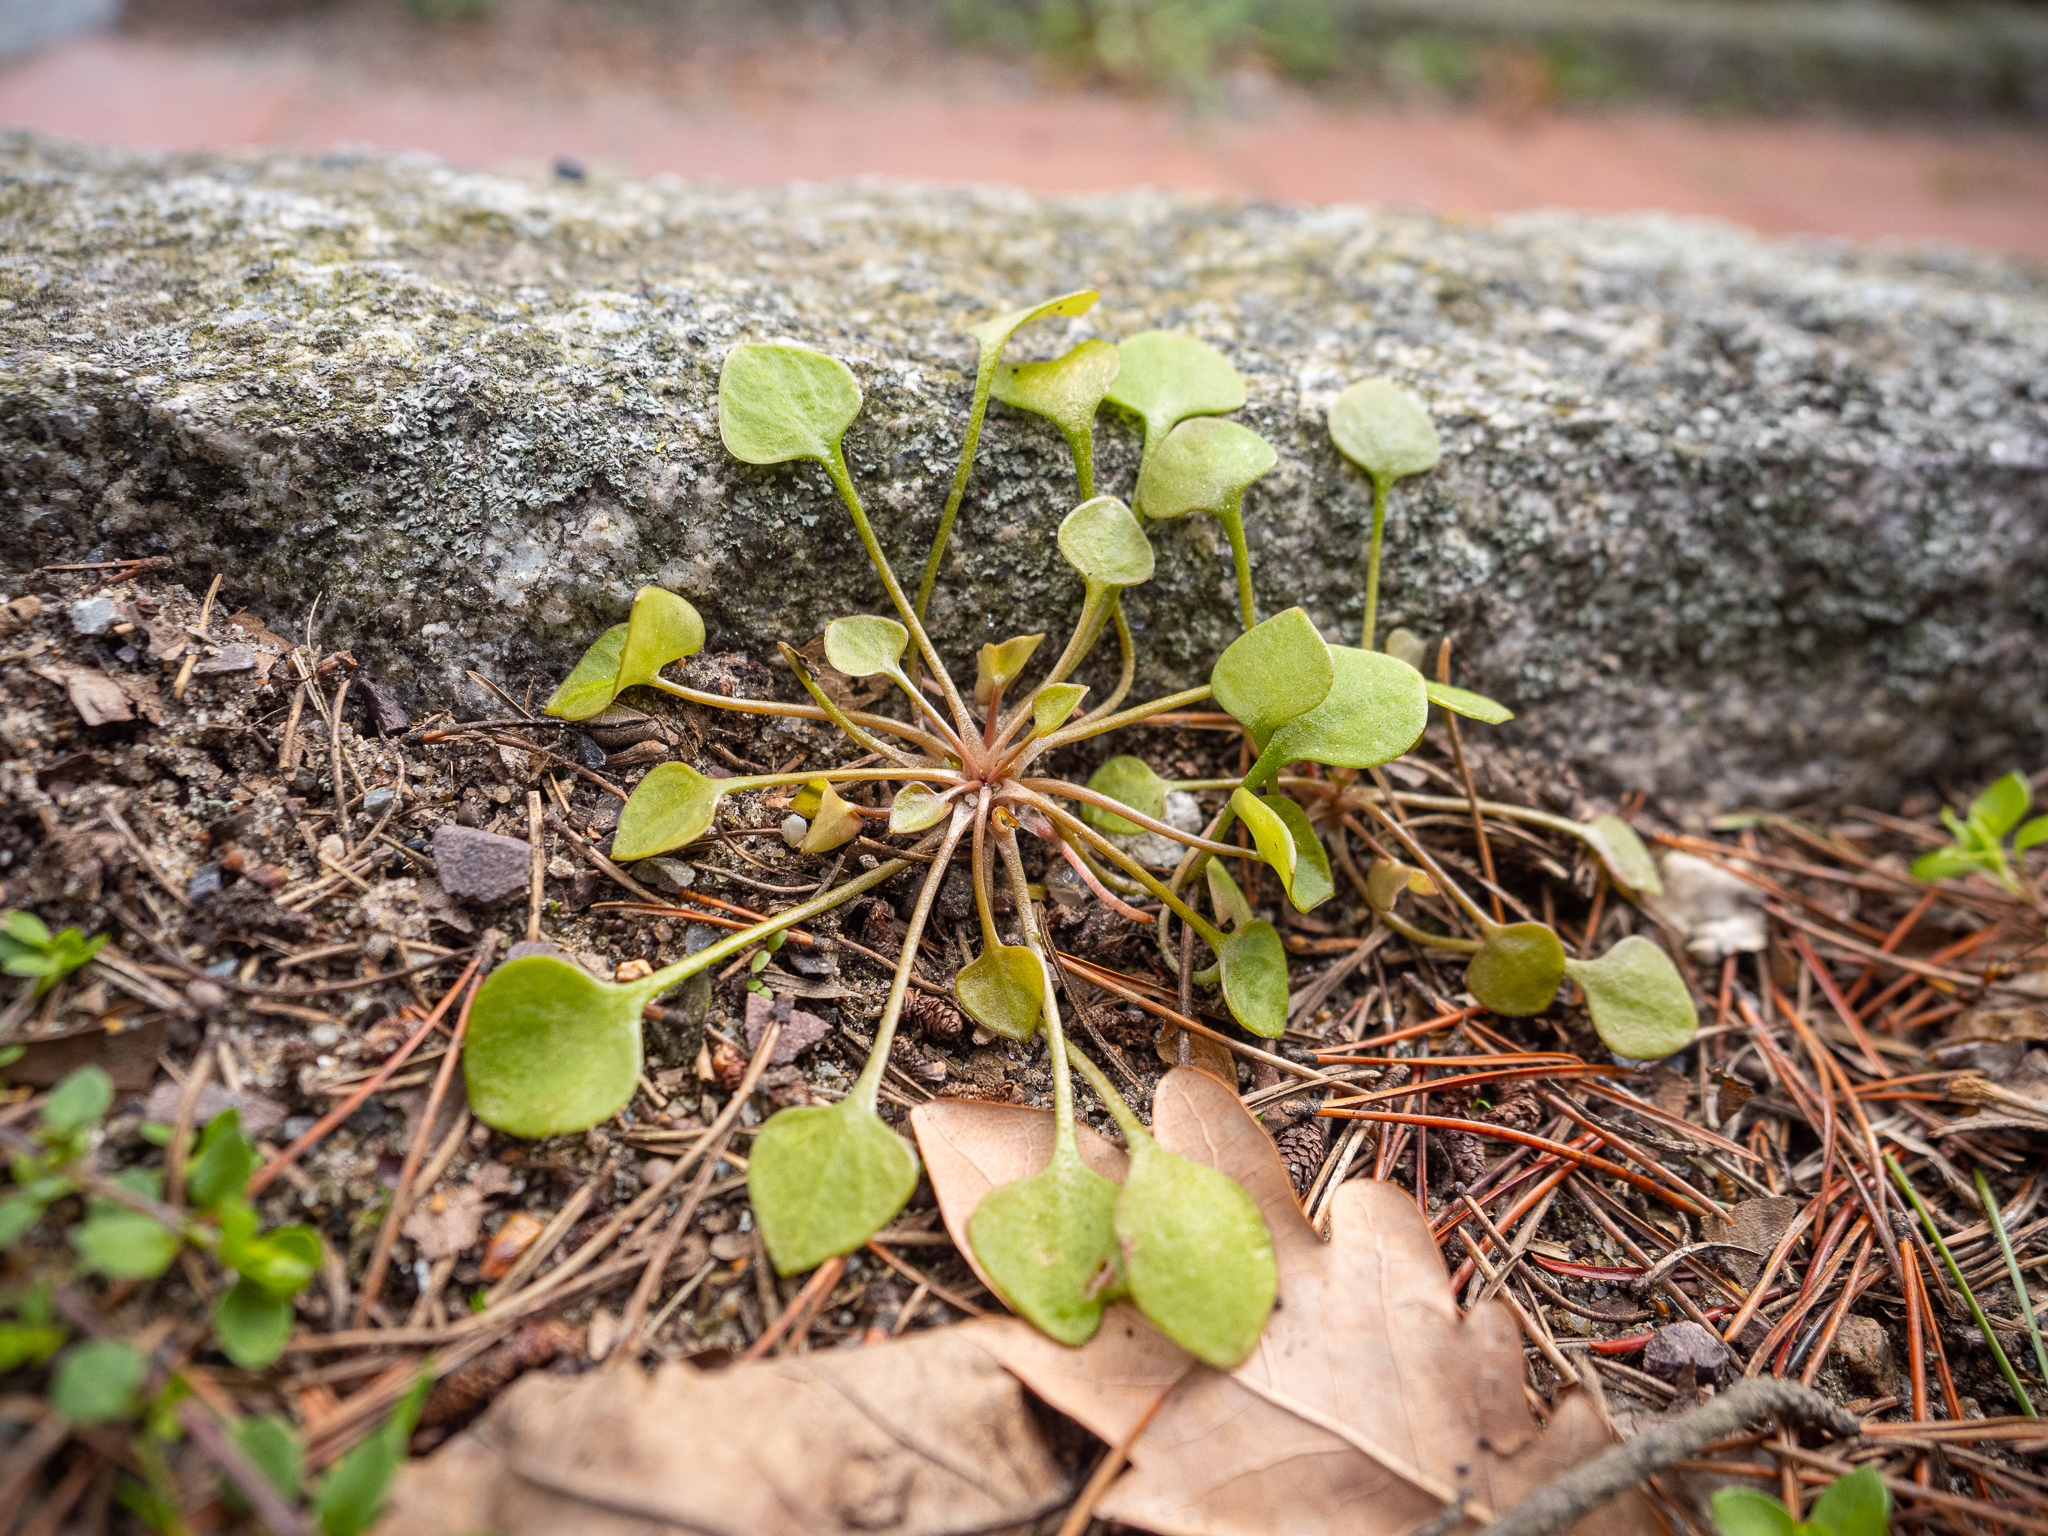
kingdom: Plantae
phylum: Tracheophyta
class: Magnoliopsida
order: Caryophyllales
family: Montiaceae
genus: Claytonia
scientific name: Claytonia perfoliata
